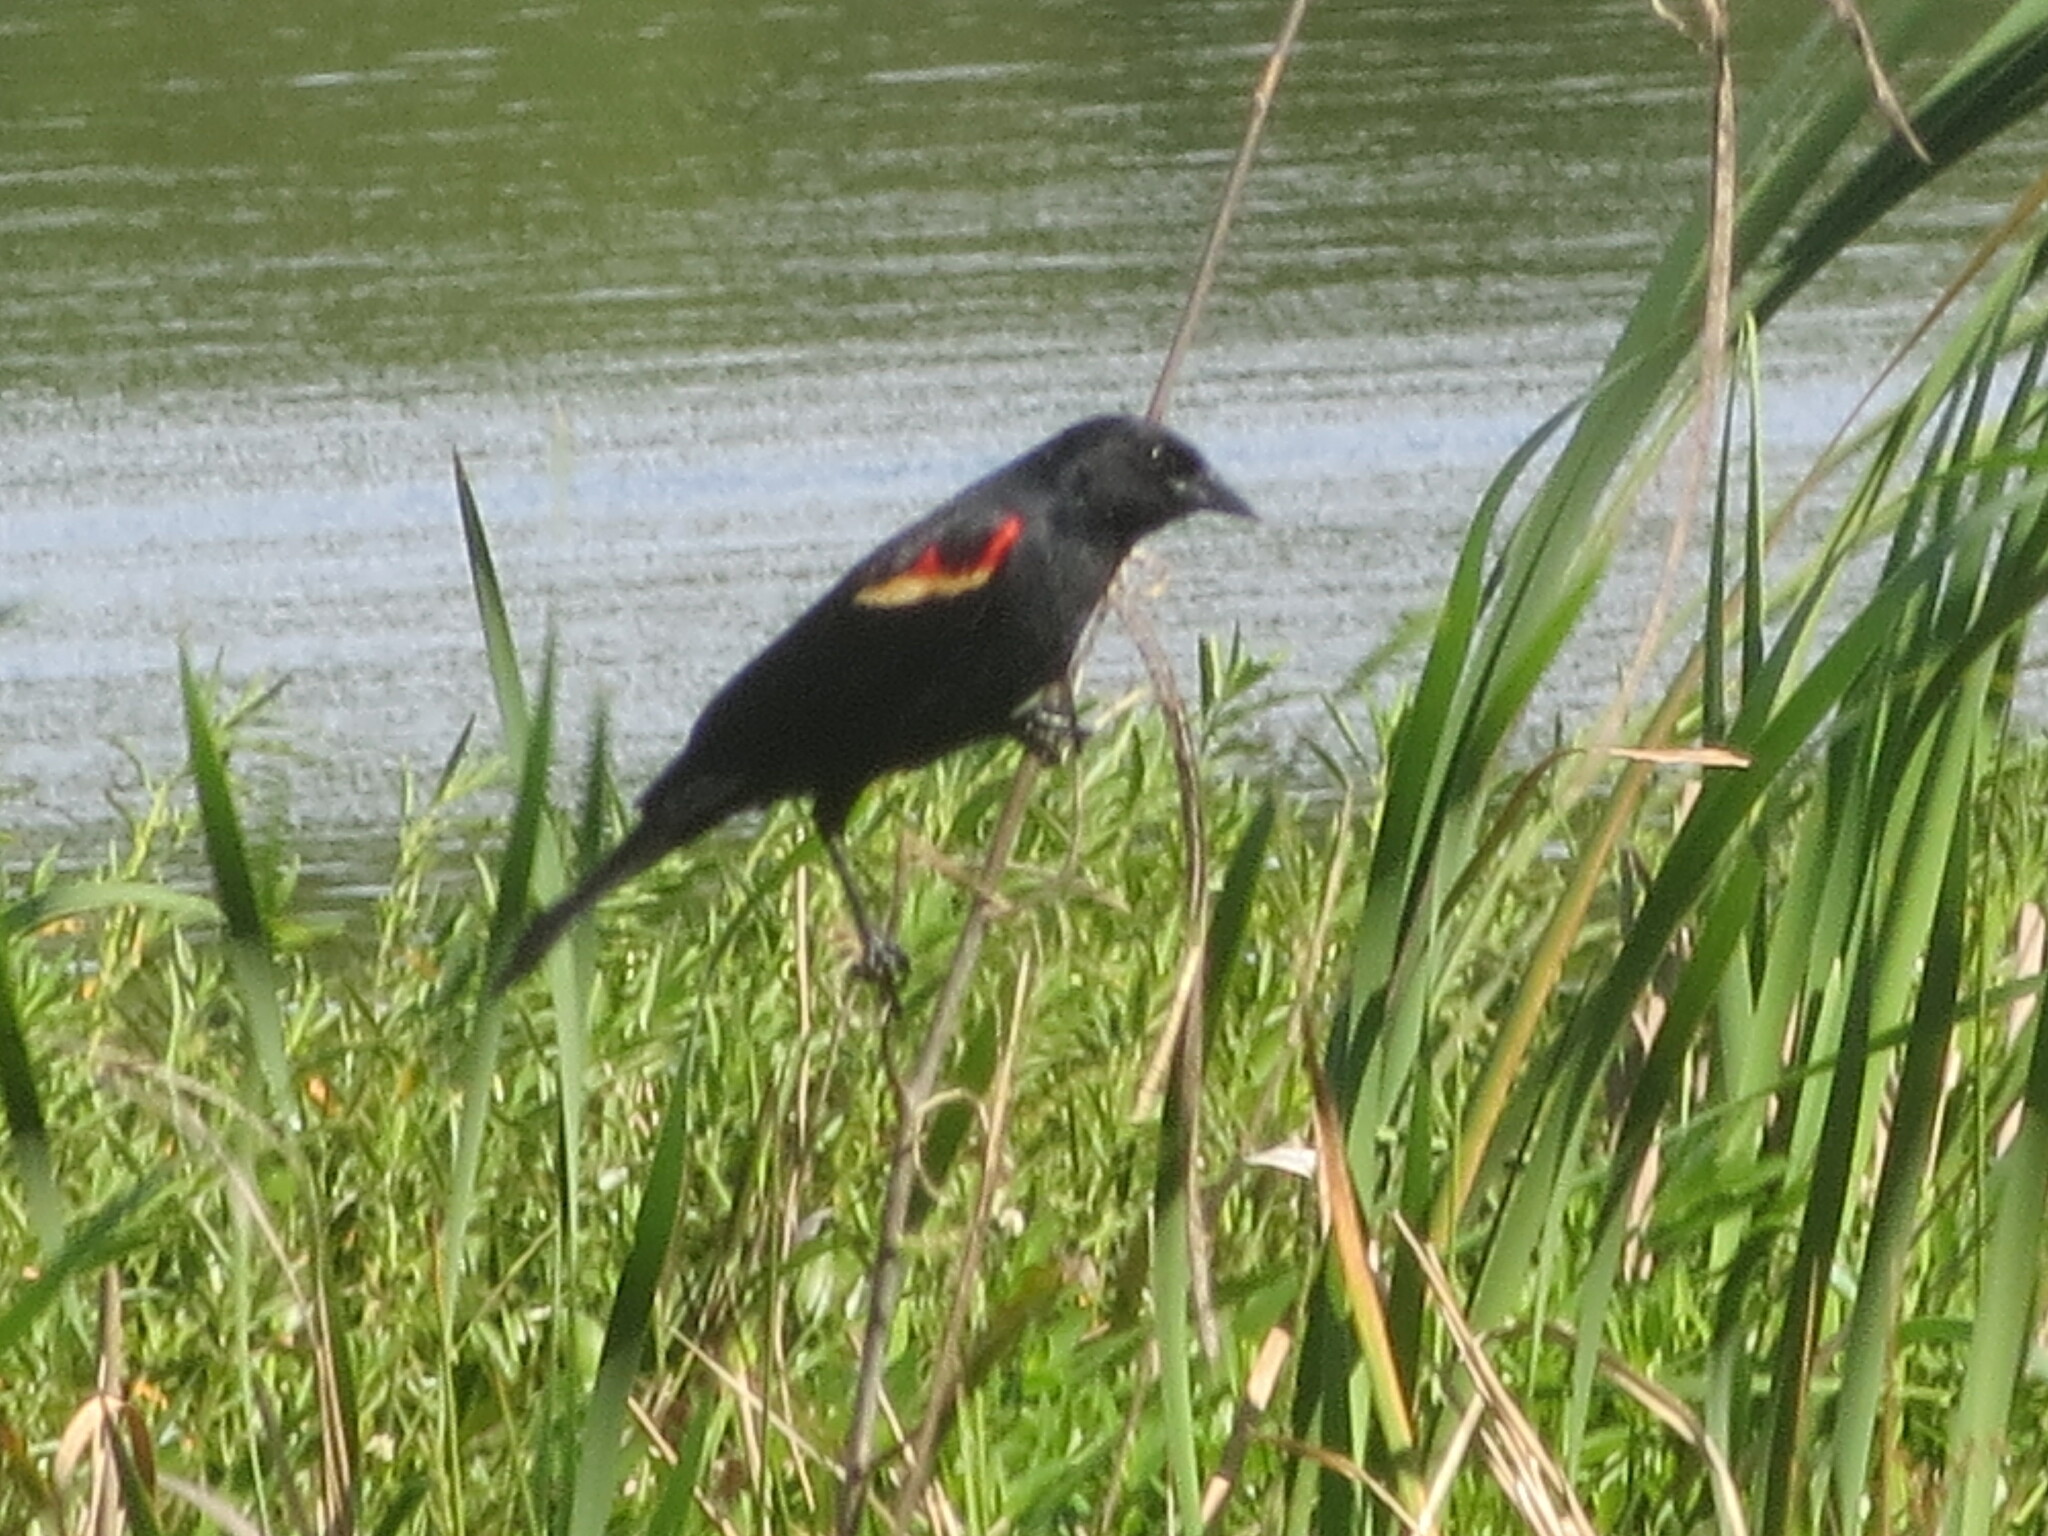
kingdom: Animalia
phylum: Chordata
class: Aves
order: Passeriformes
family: Icteridae
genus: Agelaius
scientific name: Agelaius phoeniceus
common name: Red-winged blackbird
